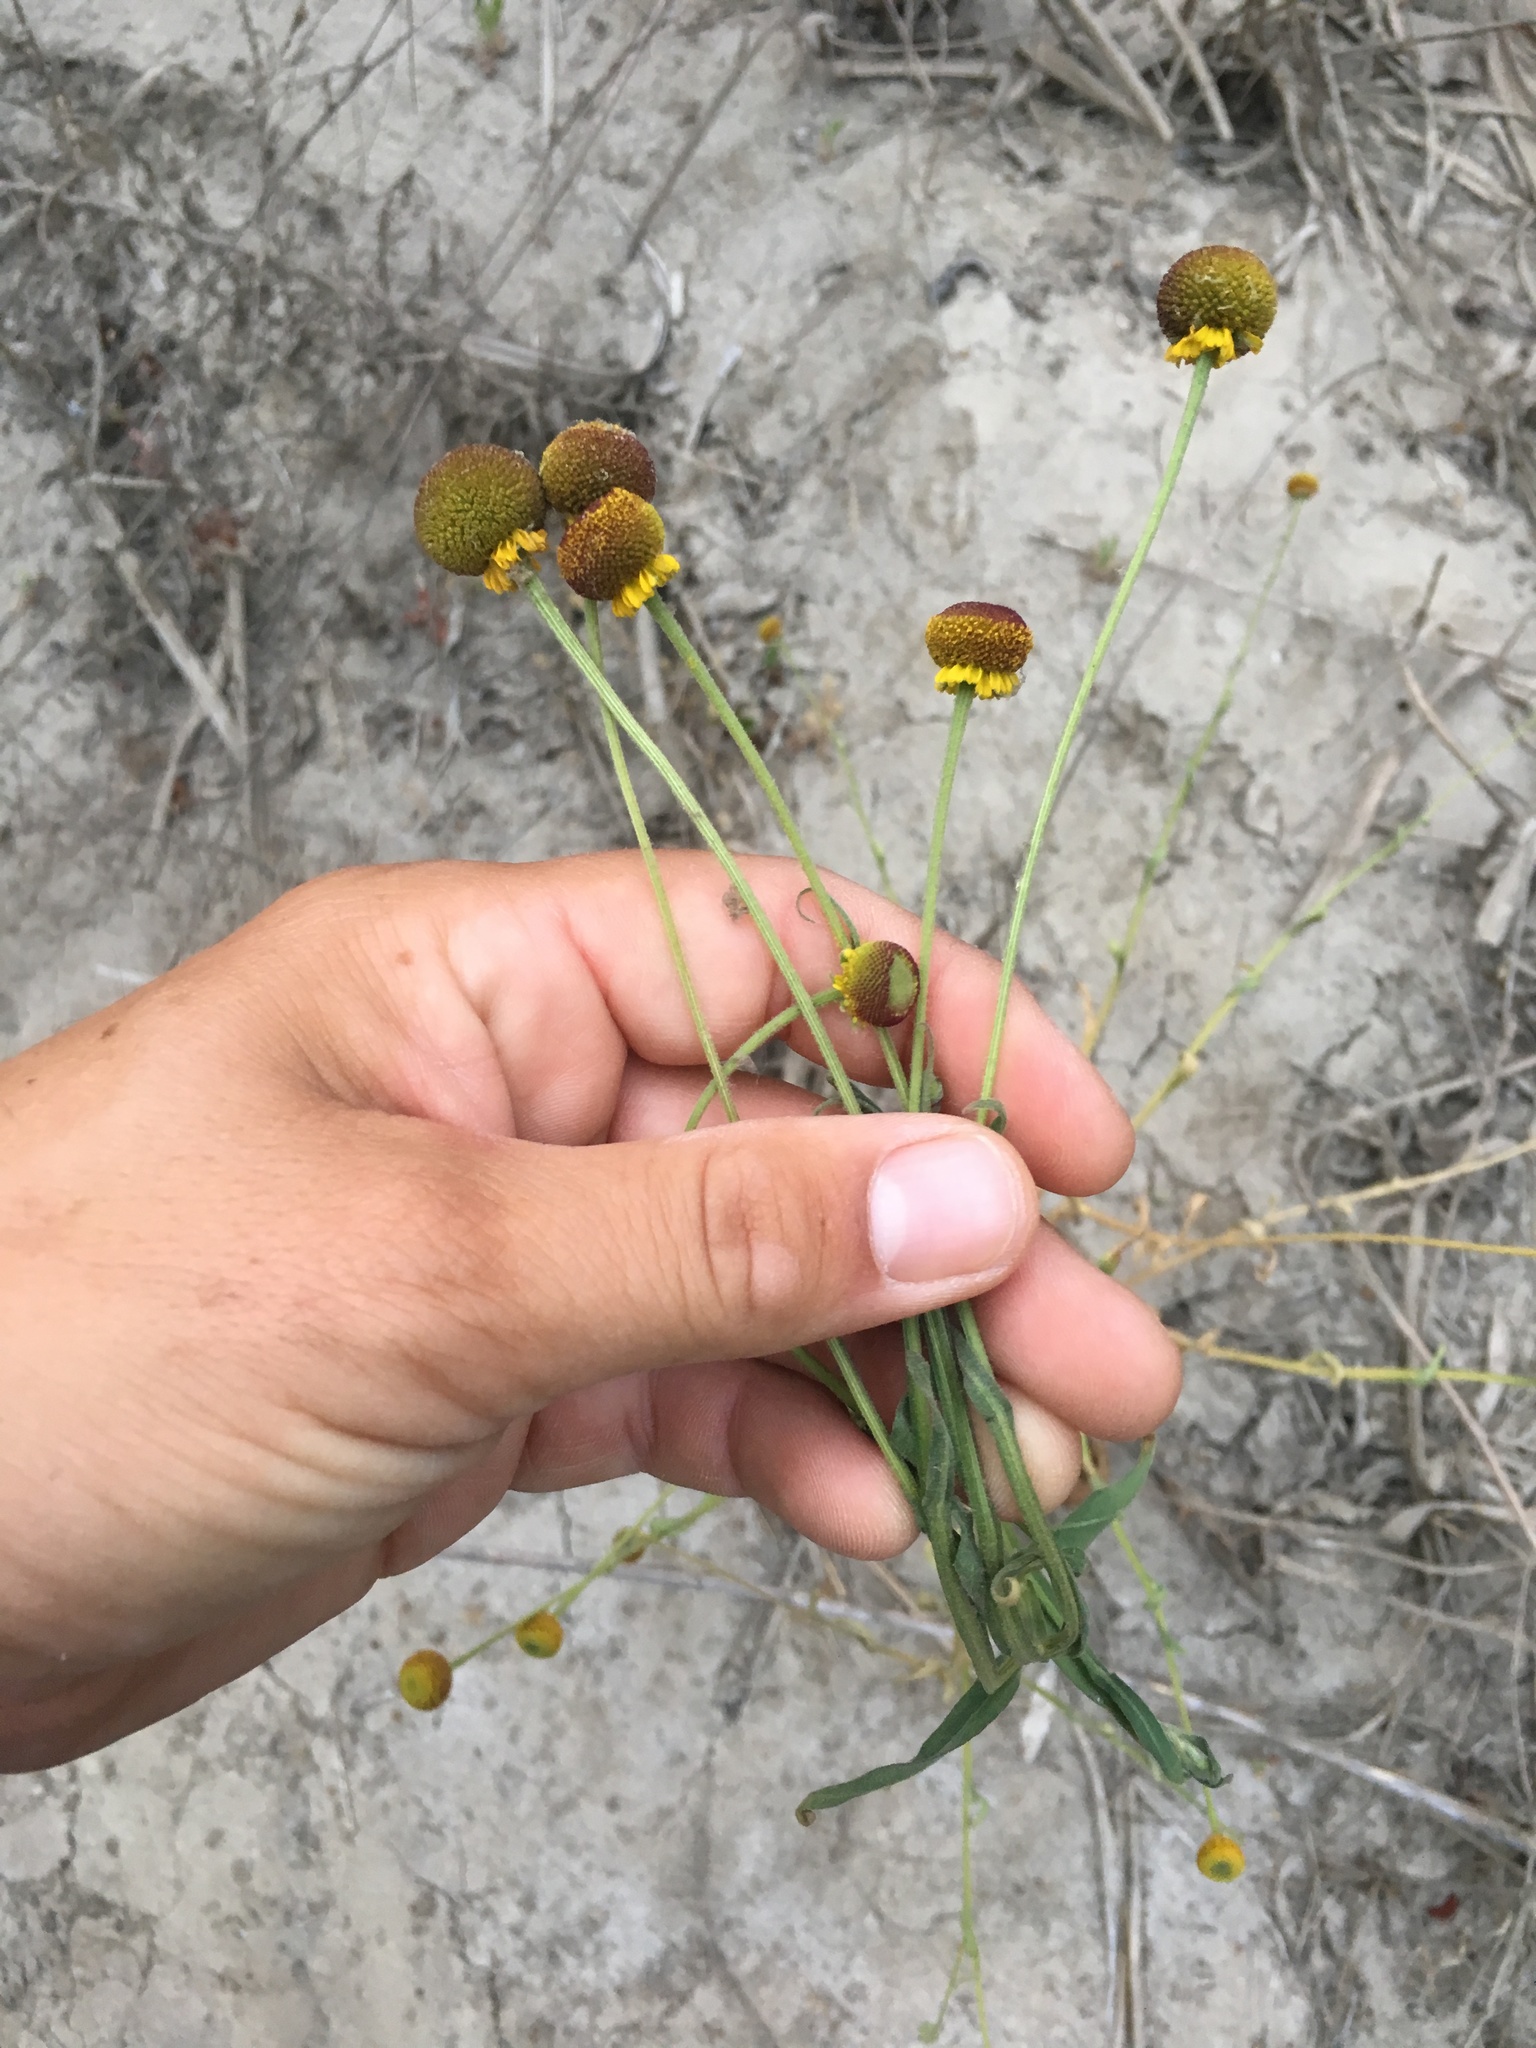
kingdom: Plantae
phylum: Tracheophyta
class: Magnoliopsida
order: Asterales
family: Asteraceae
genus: Helenium
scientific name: Helenium puberulum
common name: Sneezewort
